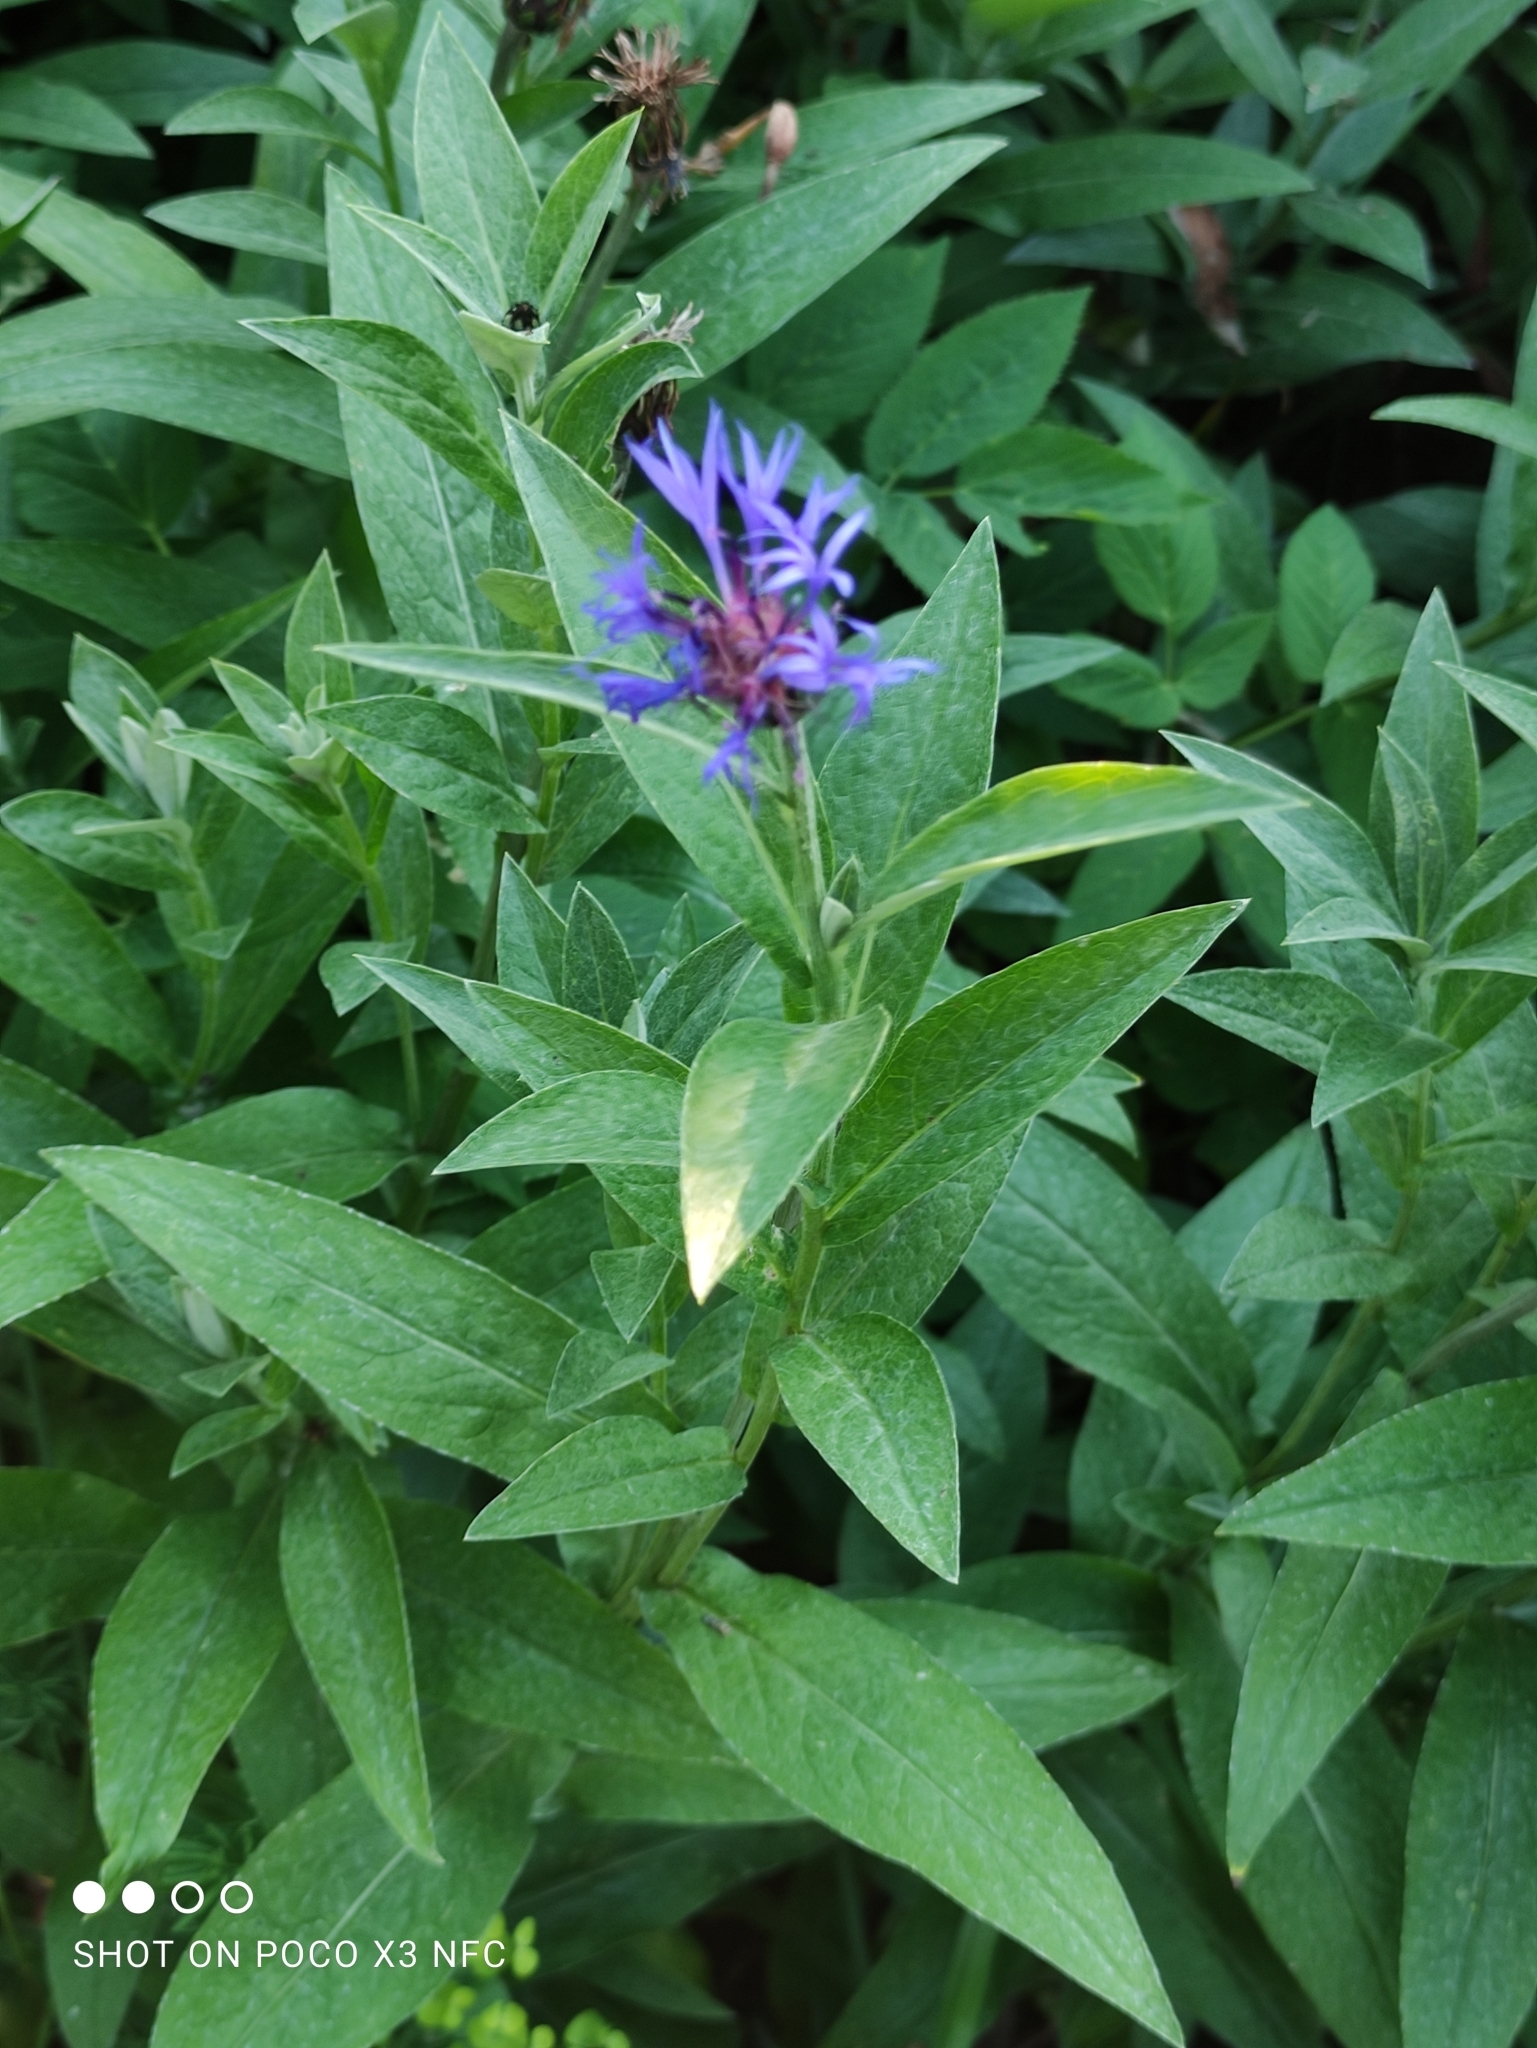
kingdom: Plantae
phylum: Tracheophyta
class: Magnoliopsida
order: Asterales
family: Asteraceae
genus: Centaurea
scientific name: Centaurea montana
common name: Perennial cornflower
